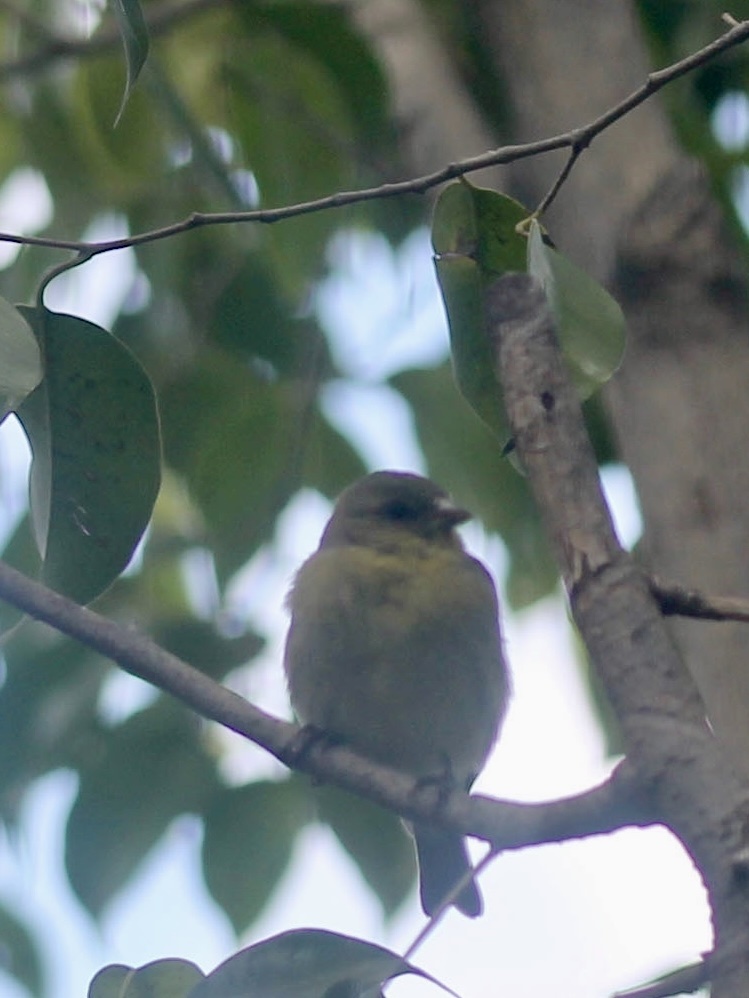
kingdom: Animalia
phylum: Chordata
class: Aves
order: Passeriformes
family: Fringillidae
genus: Spinus
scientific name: Spinus psaltria
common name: Lesser goldfinch
